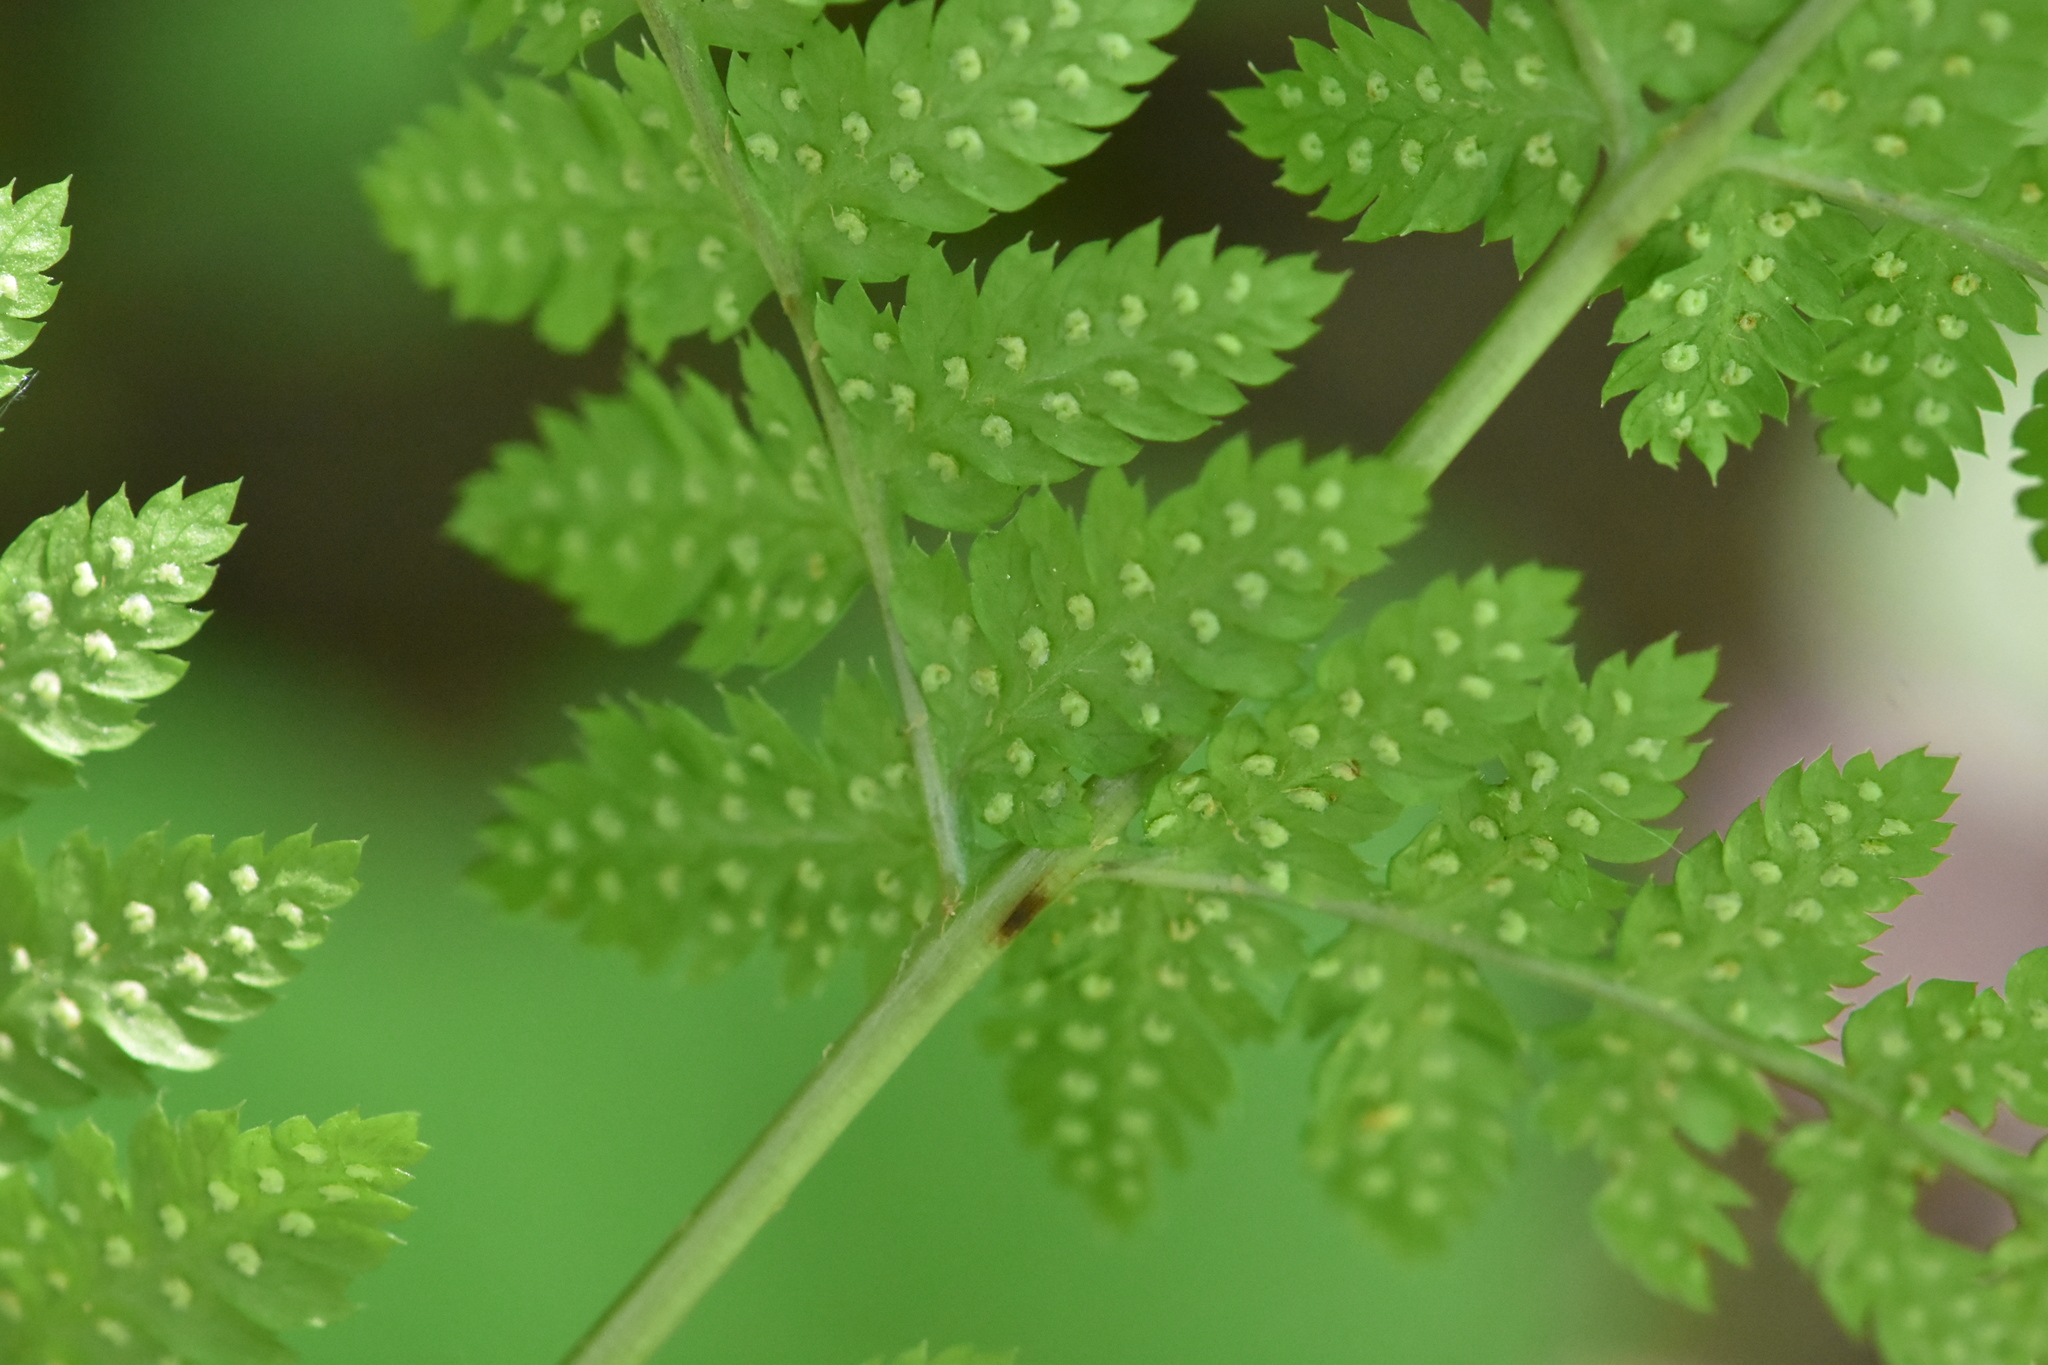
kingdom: Plantae
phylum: Tracheophyta
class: Polypodiopsida
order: Polypodiales
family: Dryopteridaceae
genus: Dryopteris
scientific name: Dryopteris carthusiana
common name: Narrow buckler-fern
